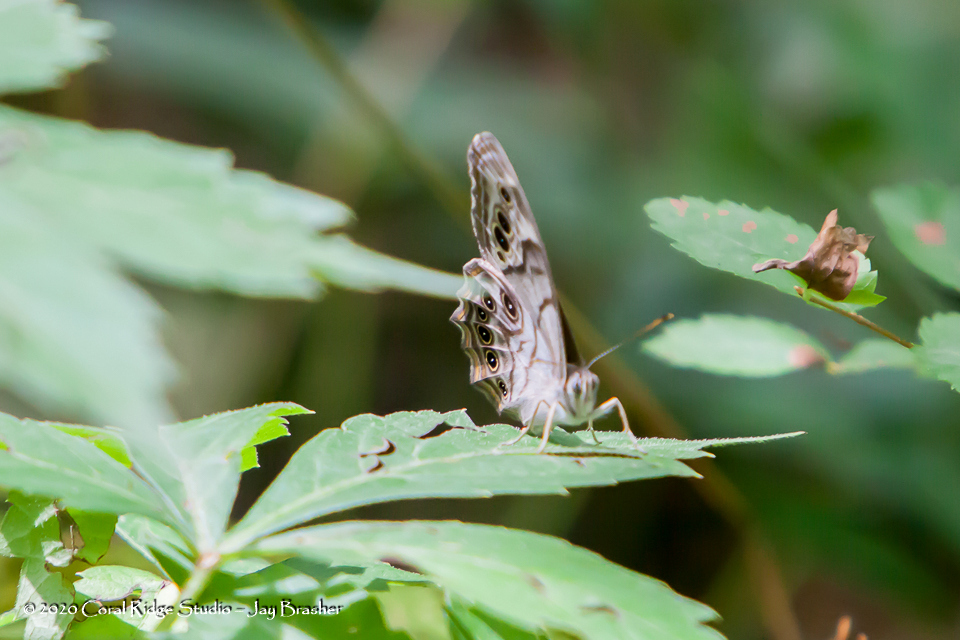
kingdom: Animalia
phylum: Arthropoda
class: Insecta
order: Lepidoptera
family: Nymphalidae
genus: Lethe
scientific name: Lethe anthedon
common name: Northern pearly-eye
